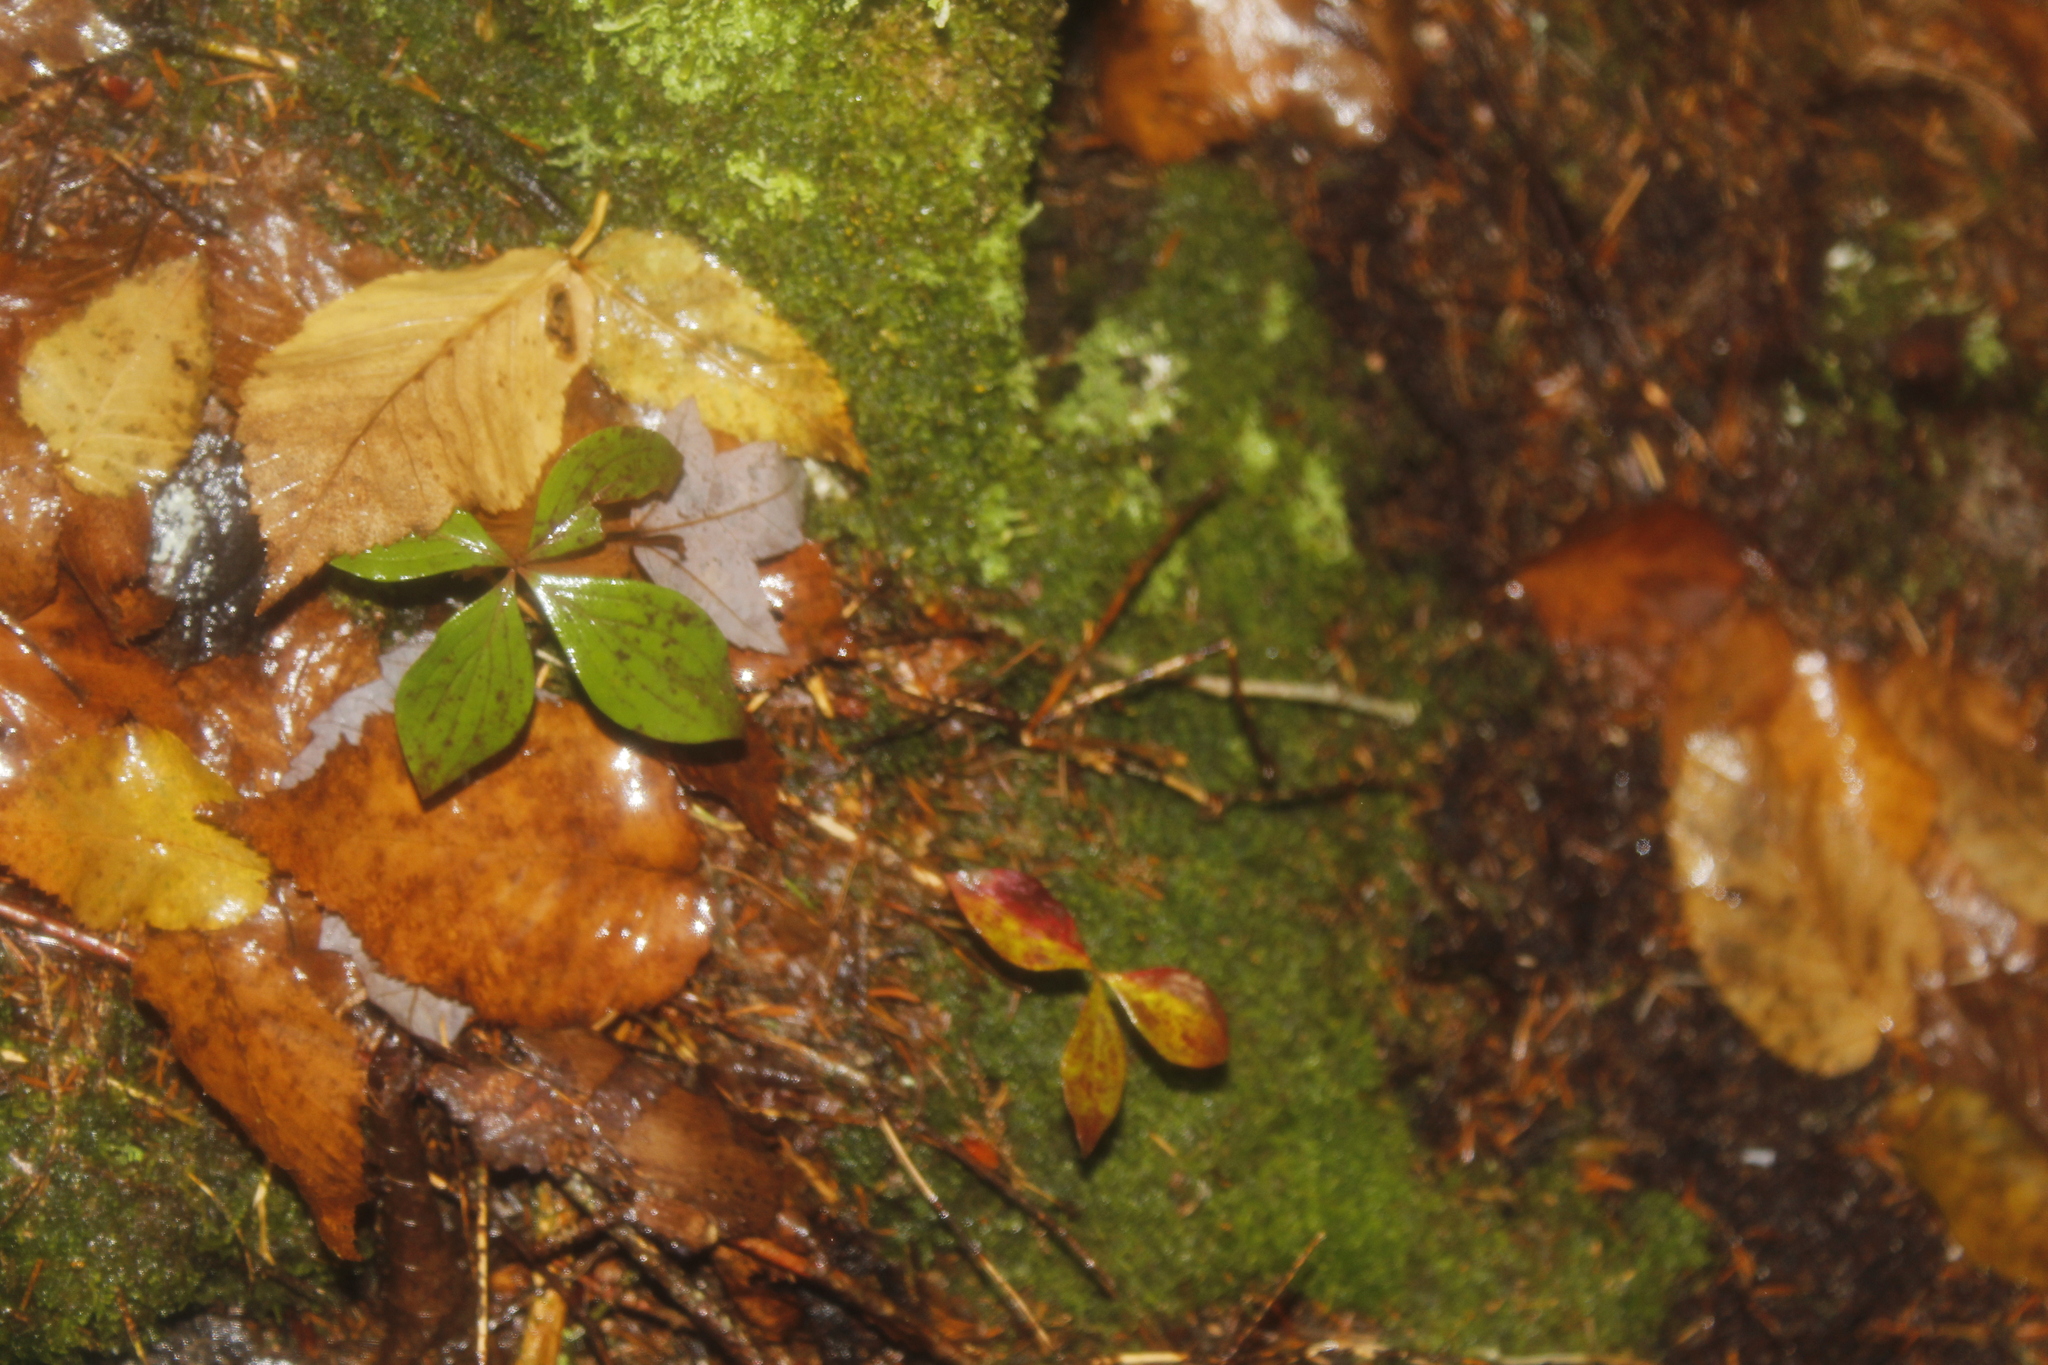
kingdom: Plantae
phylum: Tracheophyta
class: Magnoliopsida
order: Cornales
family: Cornaceae
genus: Cornus
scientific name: Cornus canadensis
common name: Creeping dogwood
